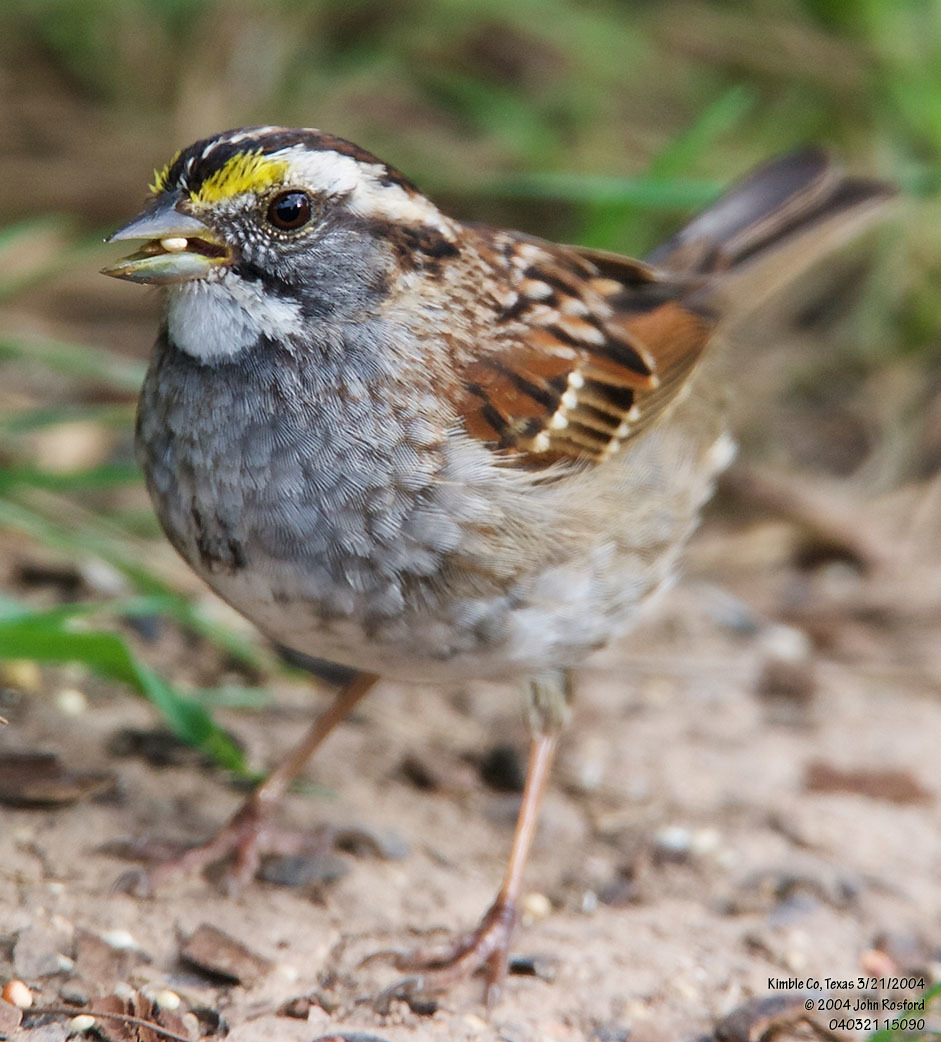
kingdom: Animalia
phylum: Chordata
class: Aves
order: Passeriformes
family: Passerellidae
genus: Zonotrichia
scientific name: Zonotrichia albicollis
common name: White-throated sparrow
